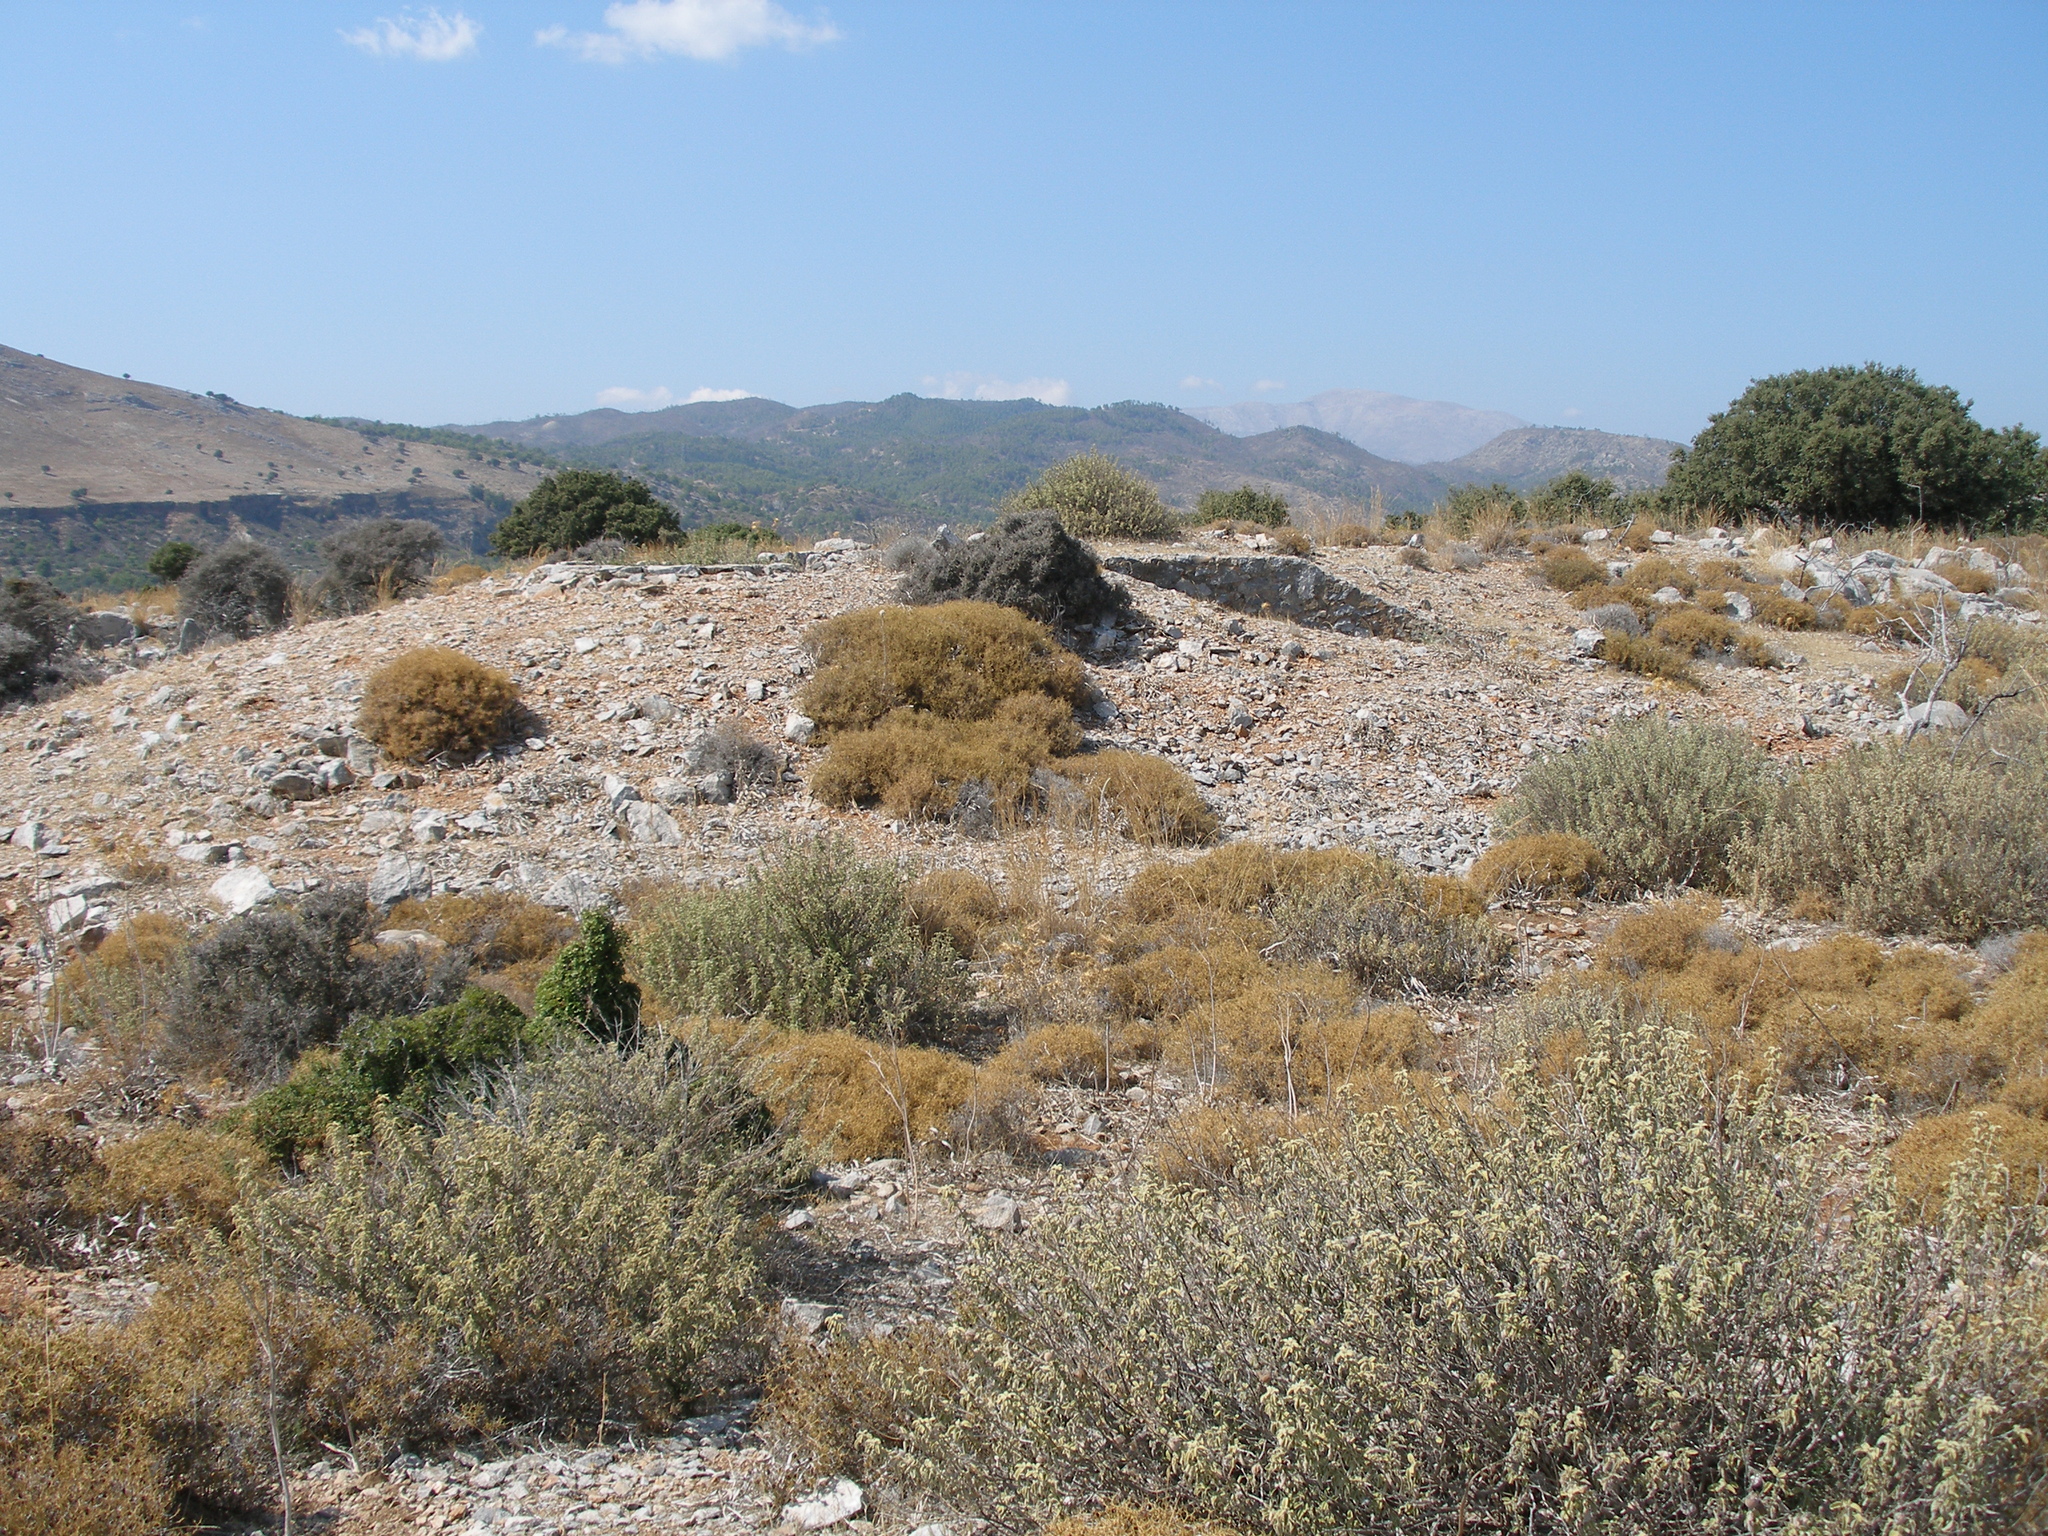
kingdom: Plantae
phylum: Tracheophyta
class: Magnoliopsida
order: Lamiales
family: Lamiaceae
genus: Salvia
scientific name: Salvia fruticosa
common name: Greek sage
